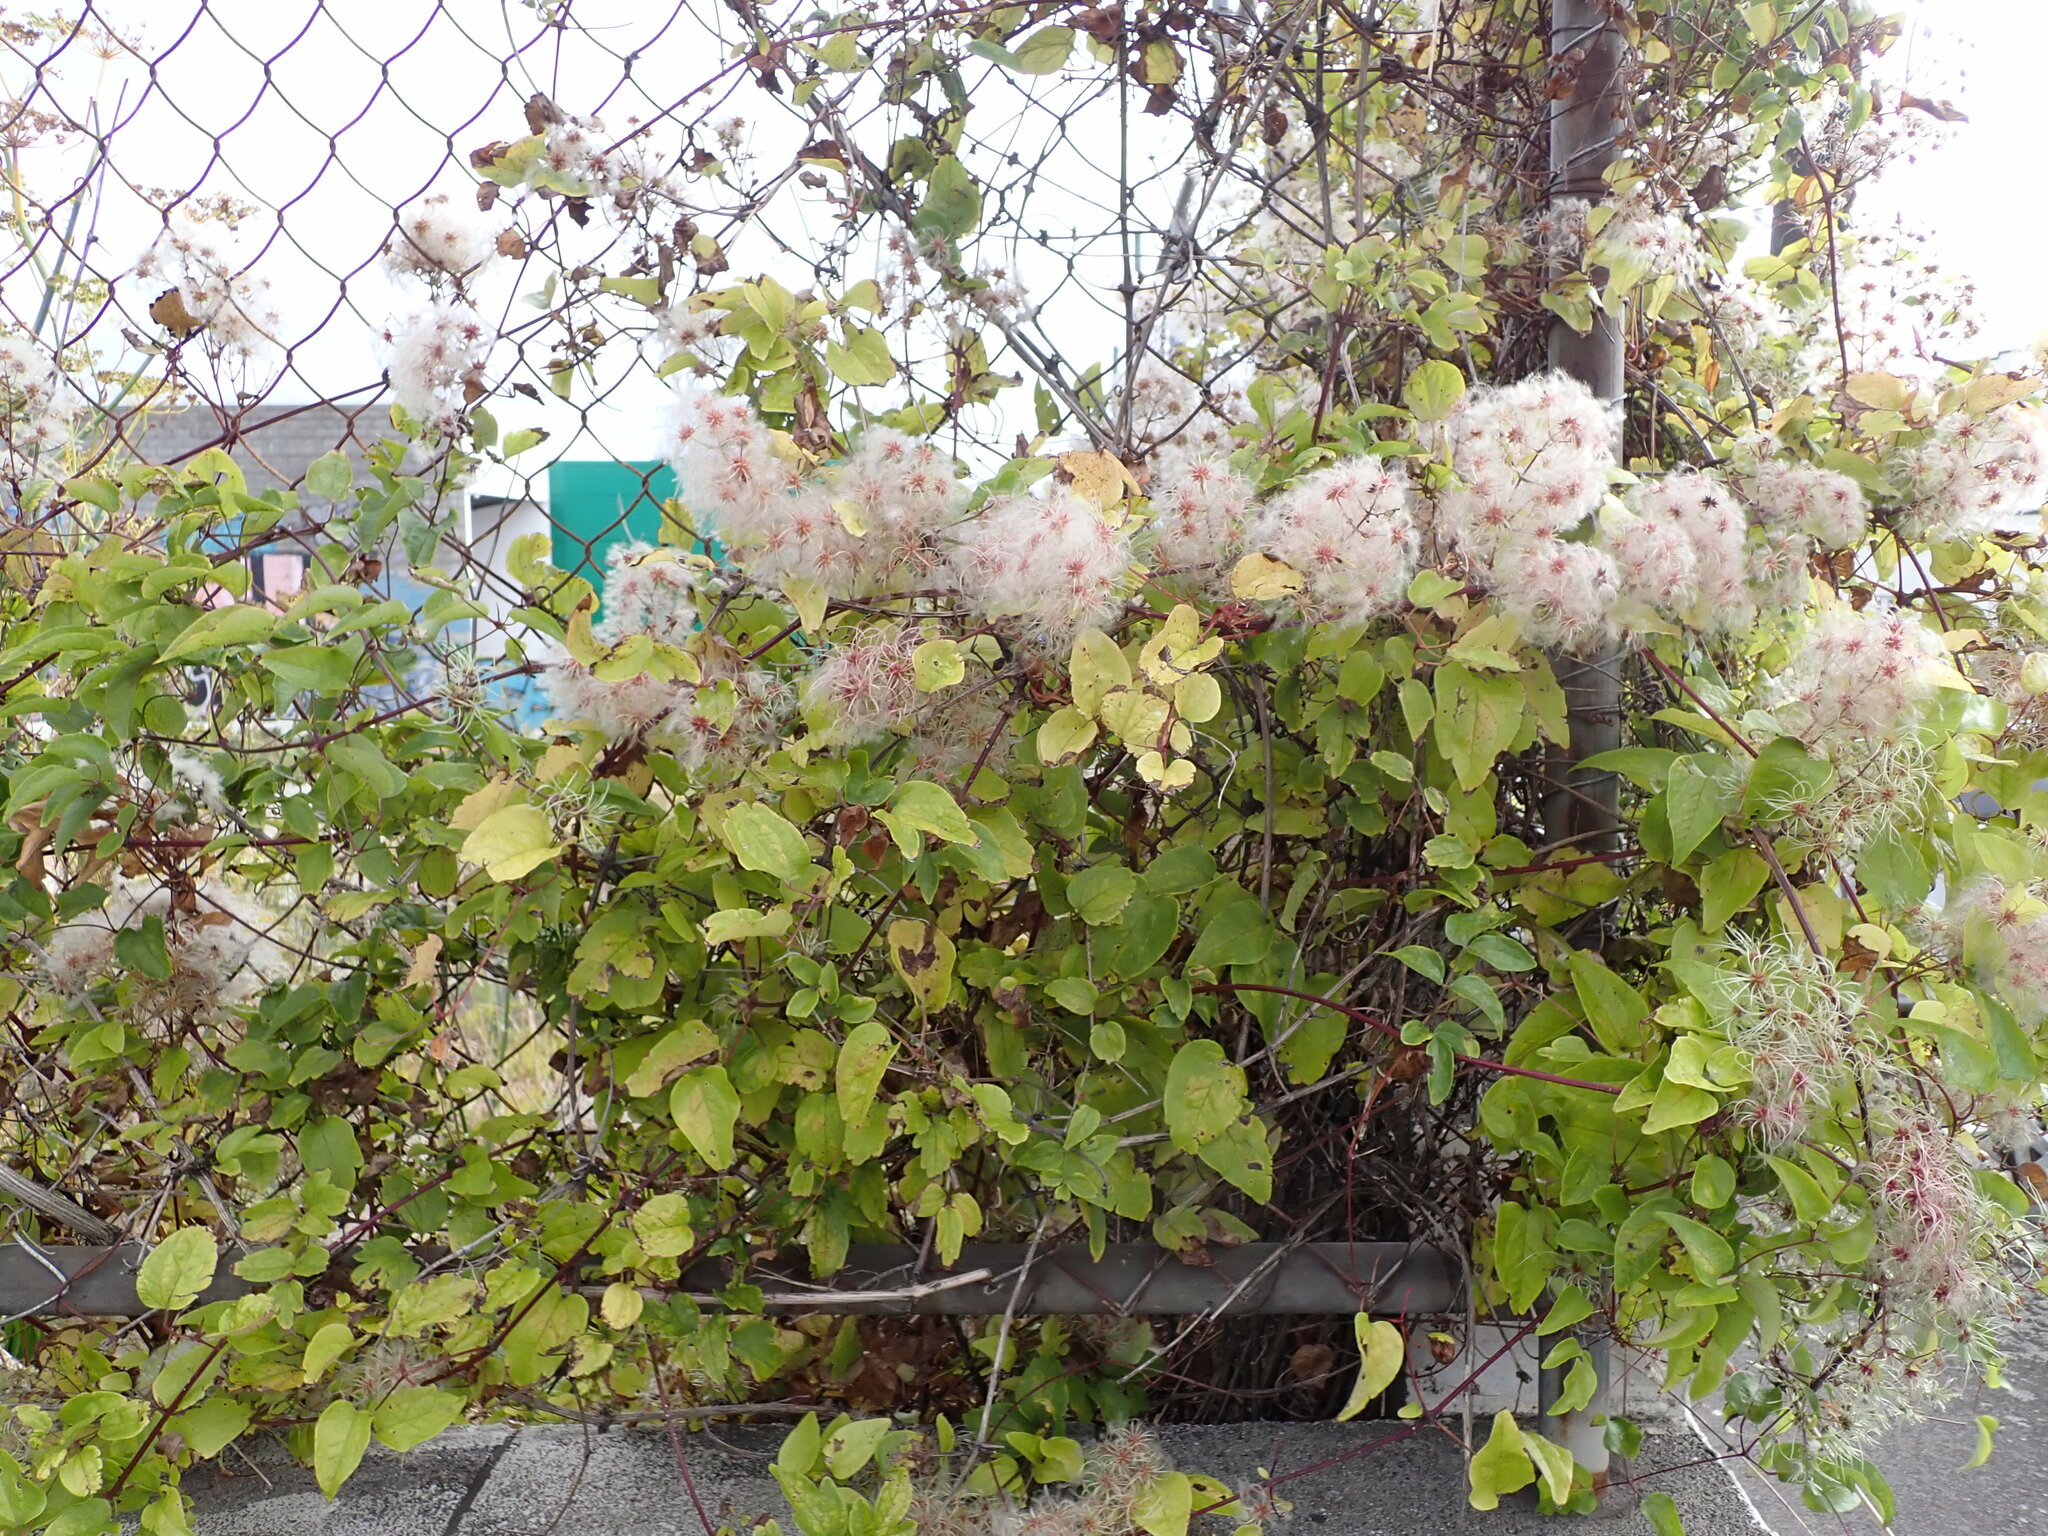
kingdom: Plantae
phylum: Tracheophyta
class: Magnoliopsida
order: Ranunculales
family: Ranunculaceae
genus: Clematis
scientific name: Clematis vitalba
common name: Evergreen clematis
